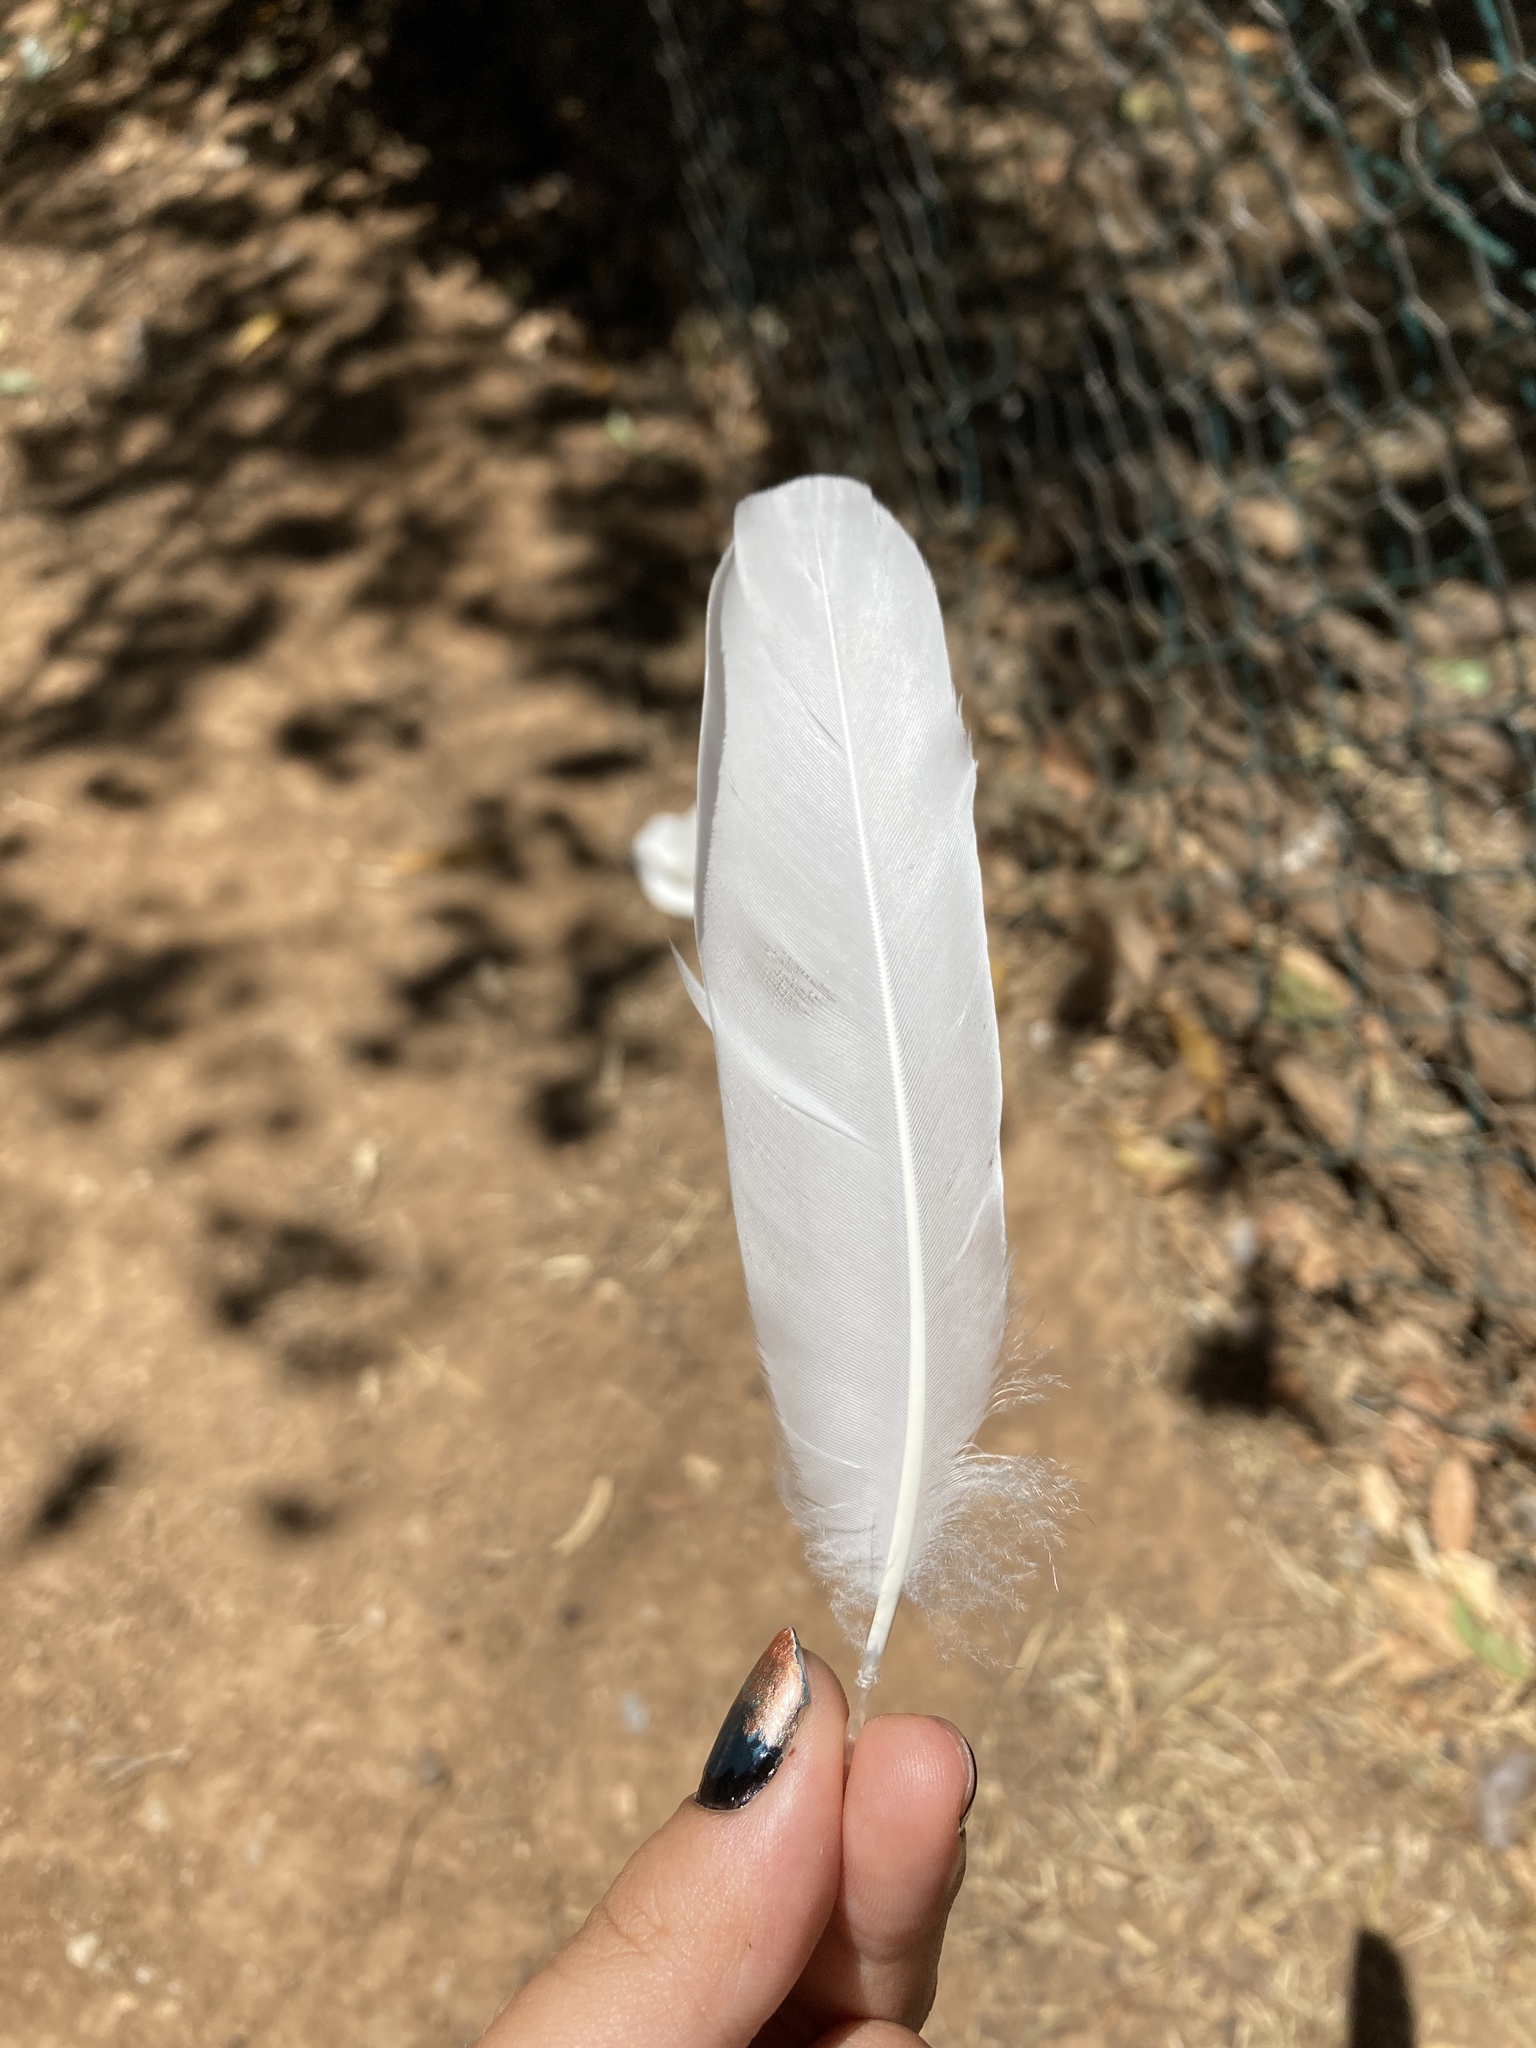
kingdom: Animalia
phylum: Chordata
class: Aves
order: Anseriformes
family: Anatidae
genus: Tadorna
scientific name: Tadorna ferruginea
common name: Ruddy shelduck
